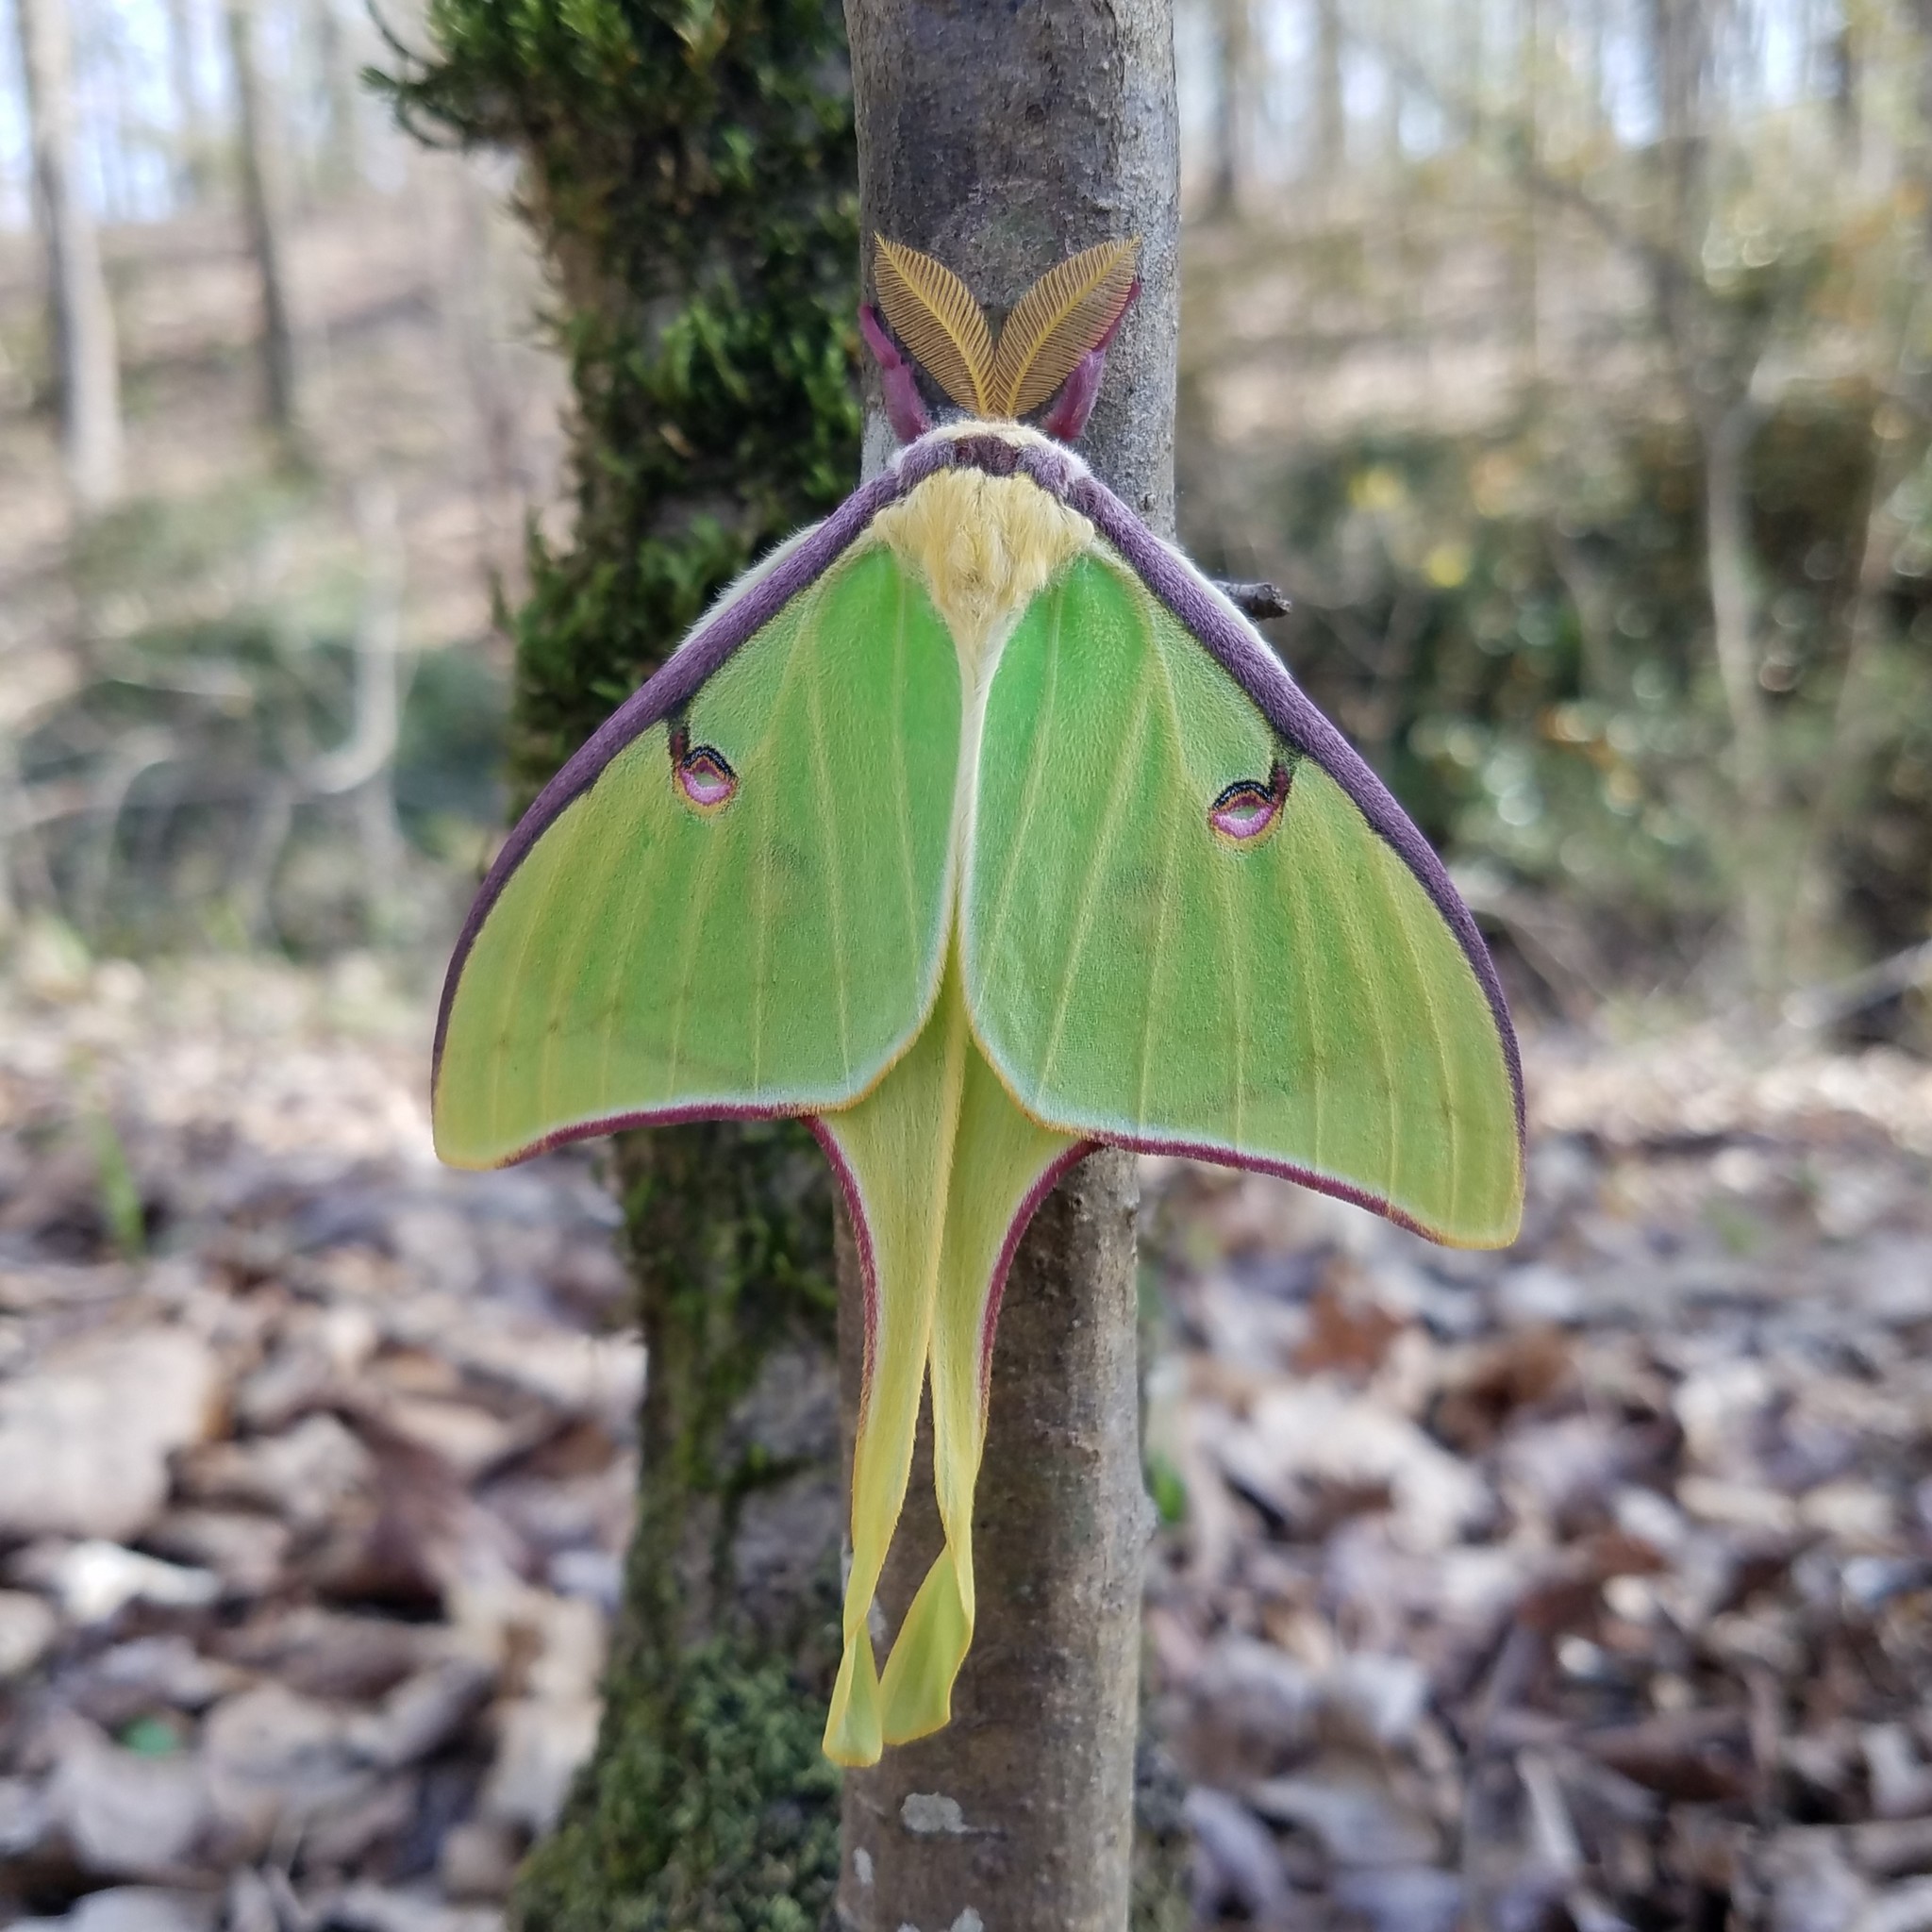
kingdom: Animalia
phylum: Arthropoda
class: Insecta
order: Lepidoptera
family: Saturniidae
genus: Actias
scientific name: Actias luna
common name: Luna moth
